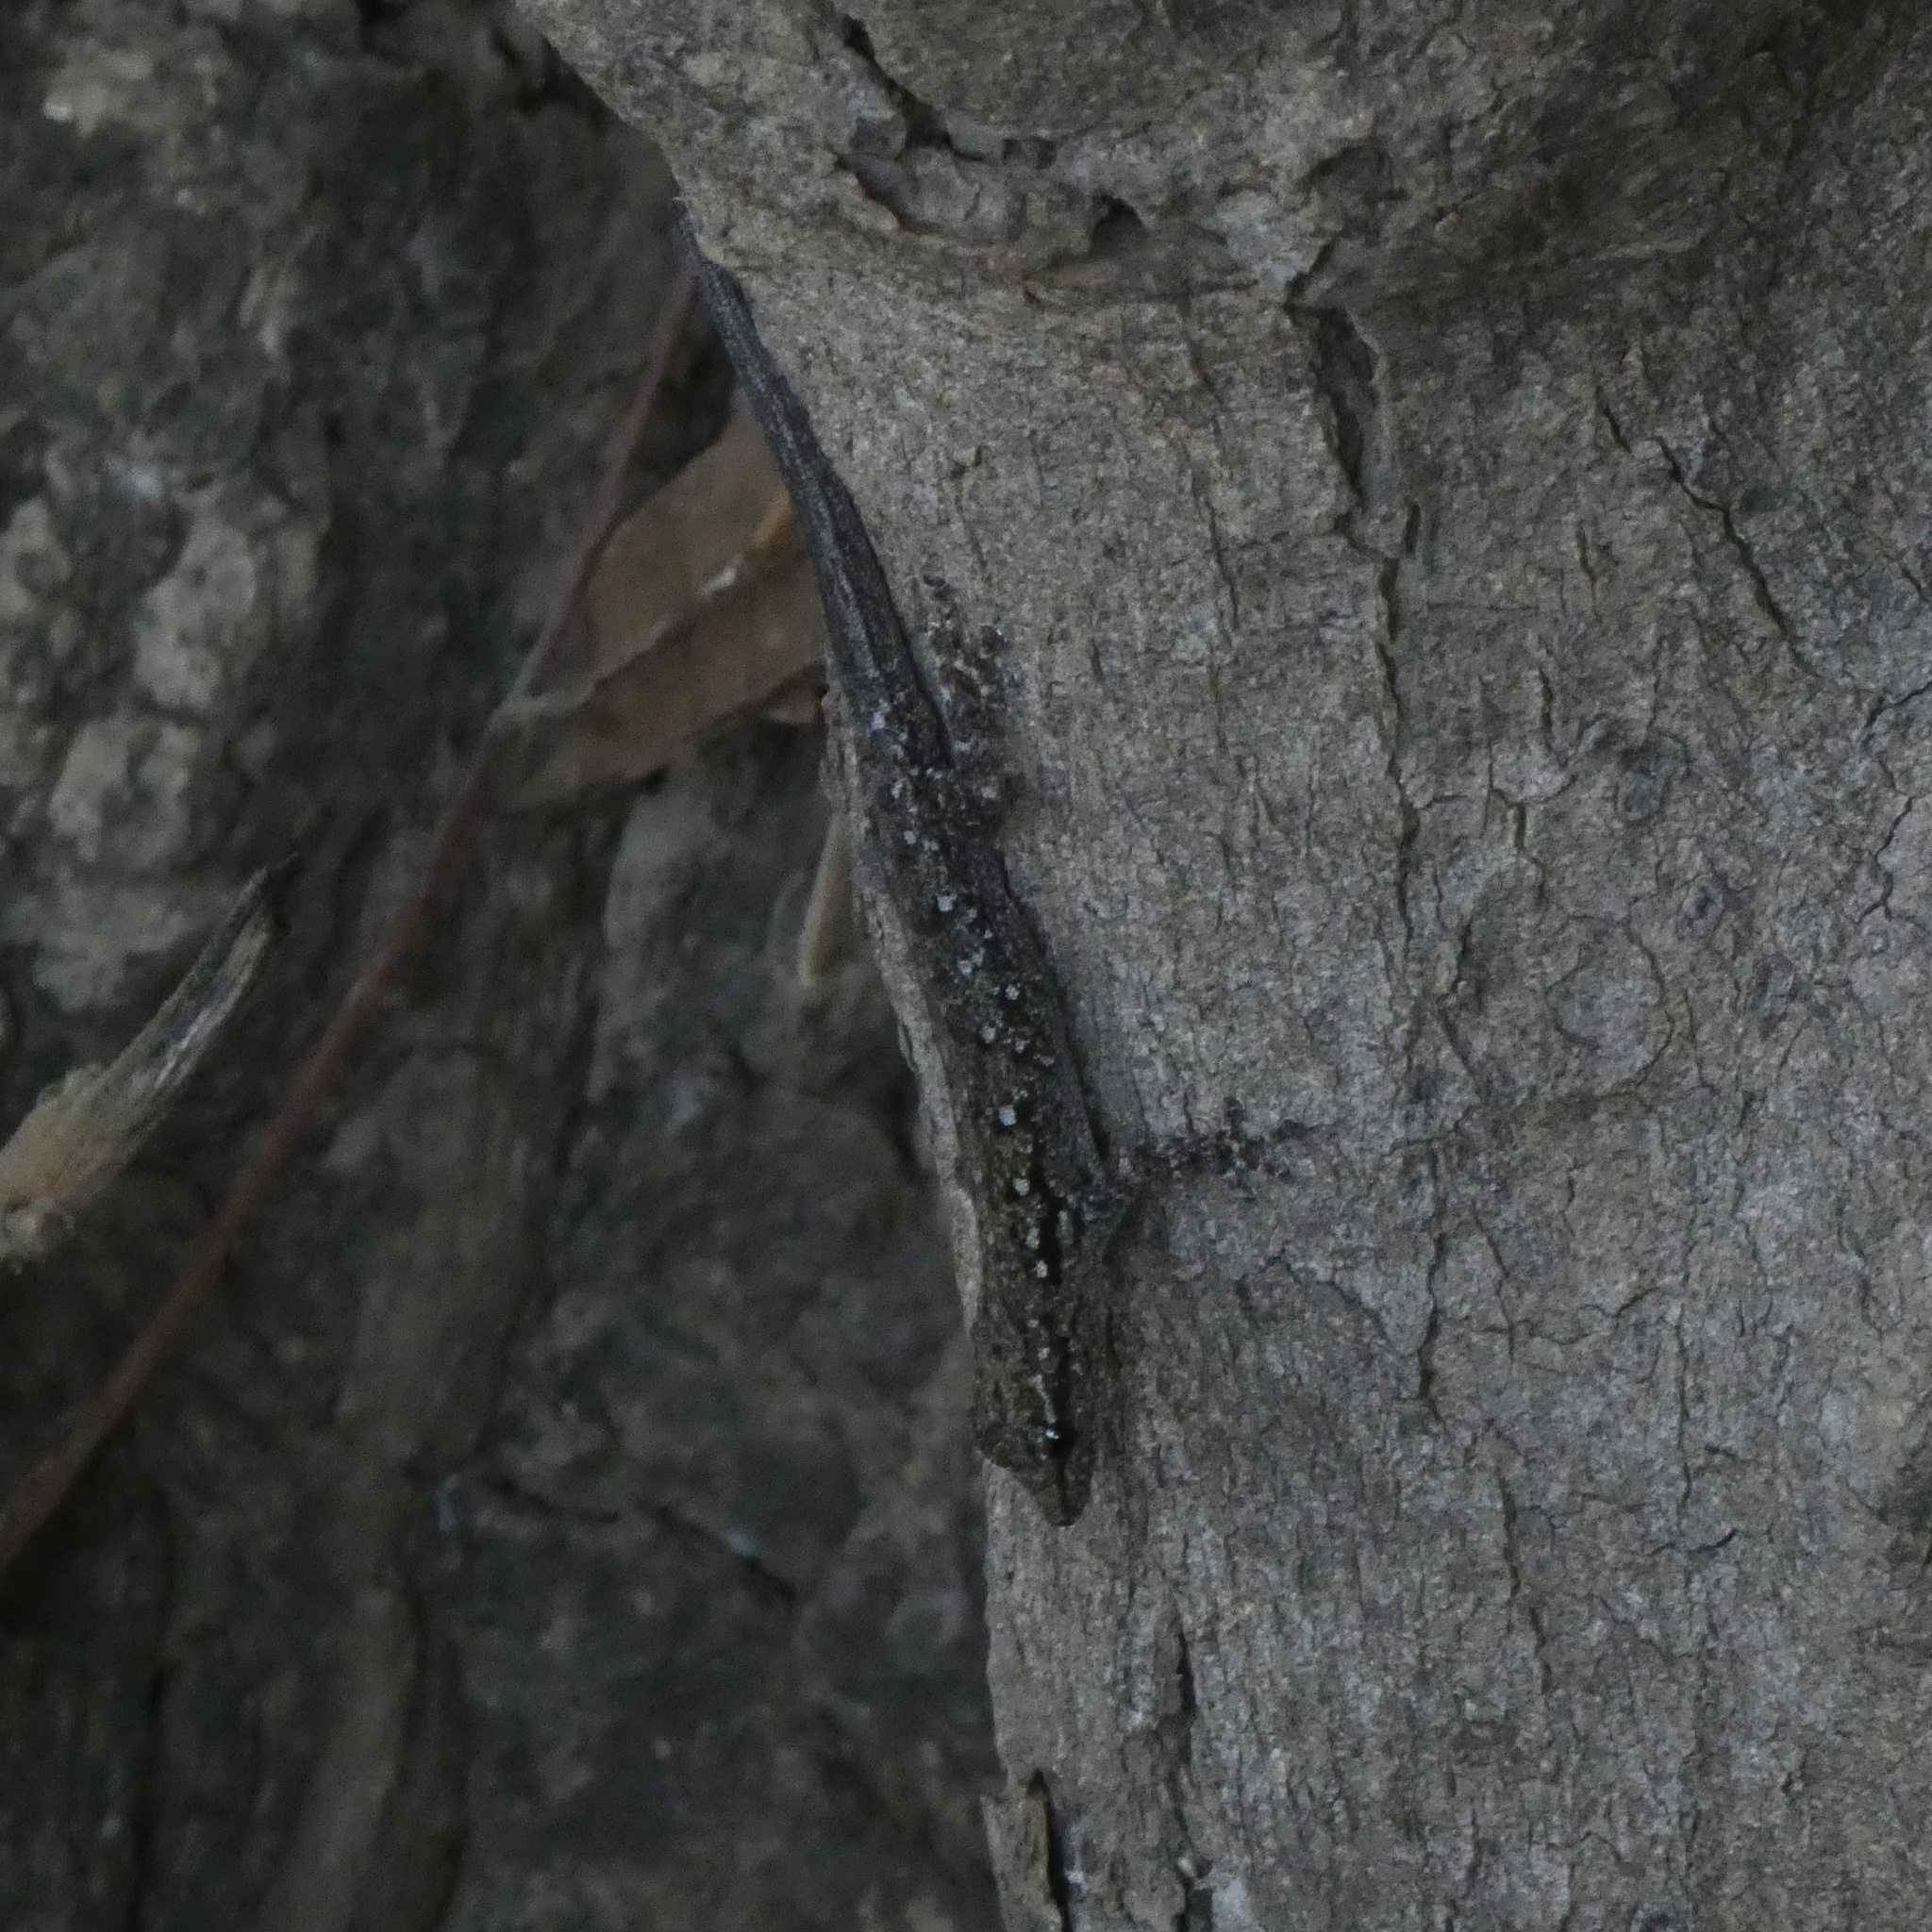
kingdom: Animalia
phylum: Chordata
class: Squamata
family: Gekkonidae
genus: Lygodactylus
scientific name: Lygodactylus capensis
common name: Cape dwarf gecko
